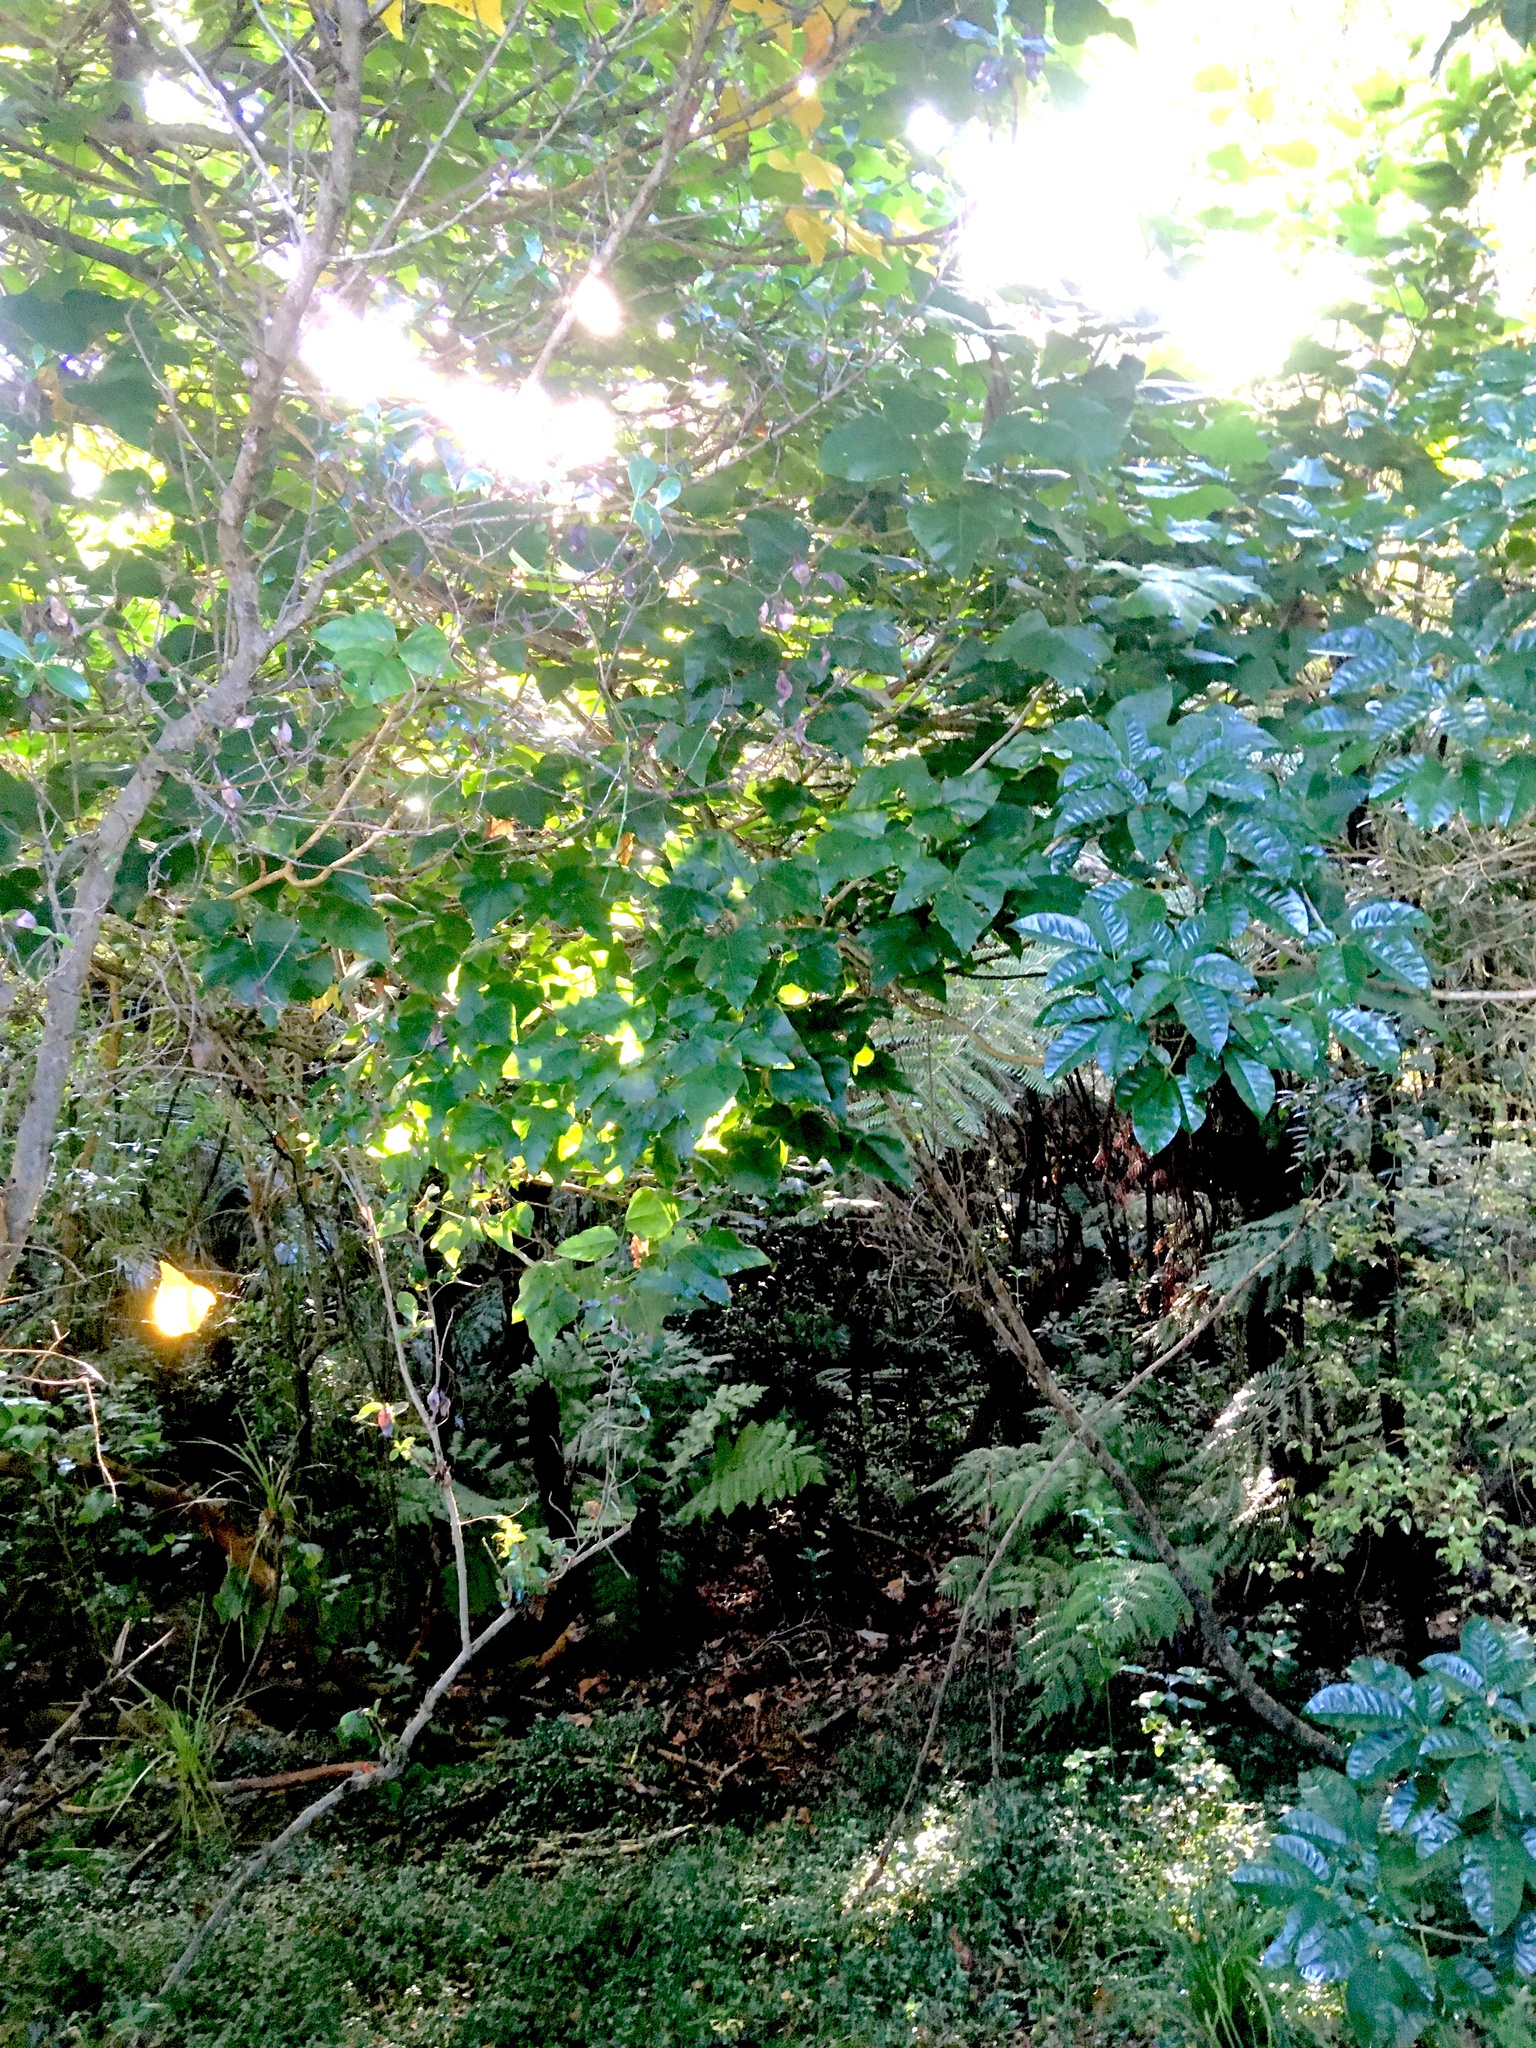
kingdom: Plantae
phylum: Tracheophyta
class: Magnoliopsida
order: Gentianales
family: Rubiaceae
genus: Coprosma
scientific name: Coprosma robusta
